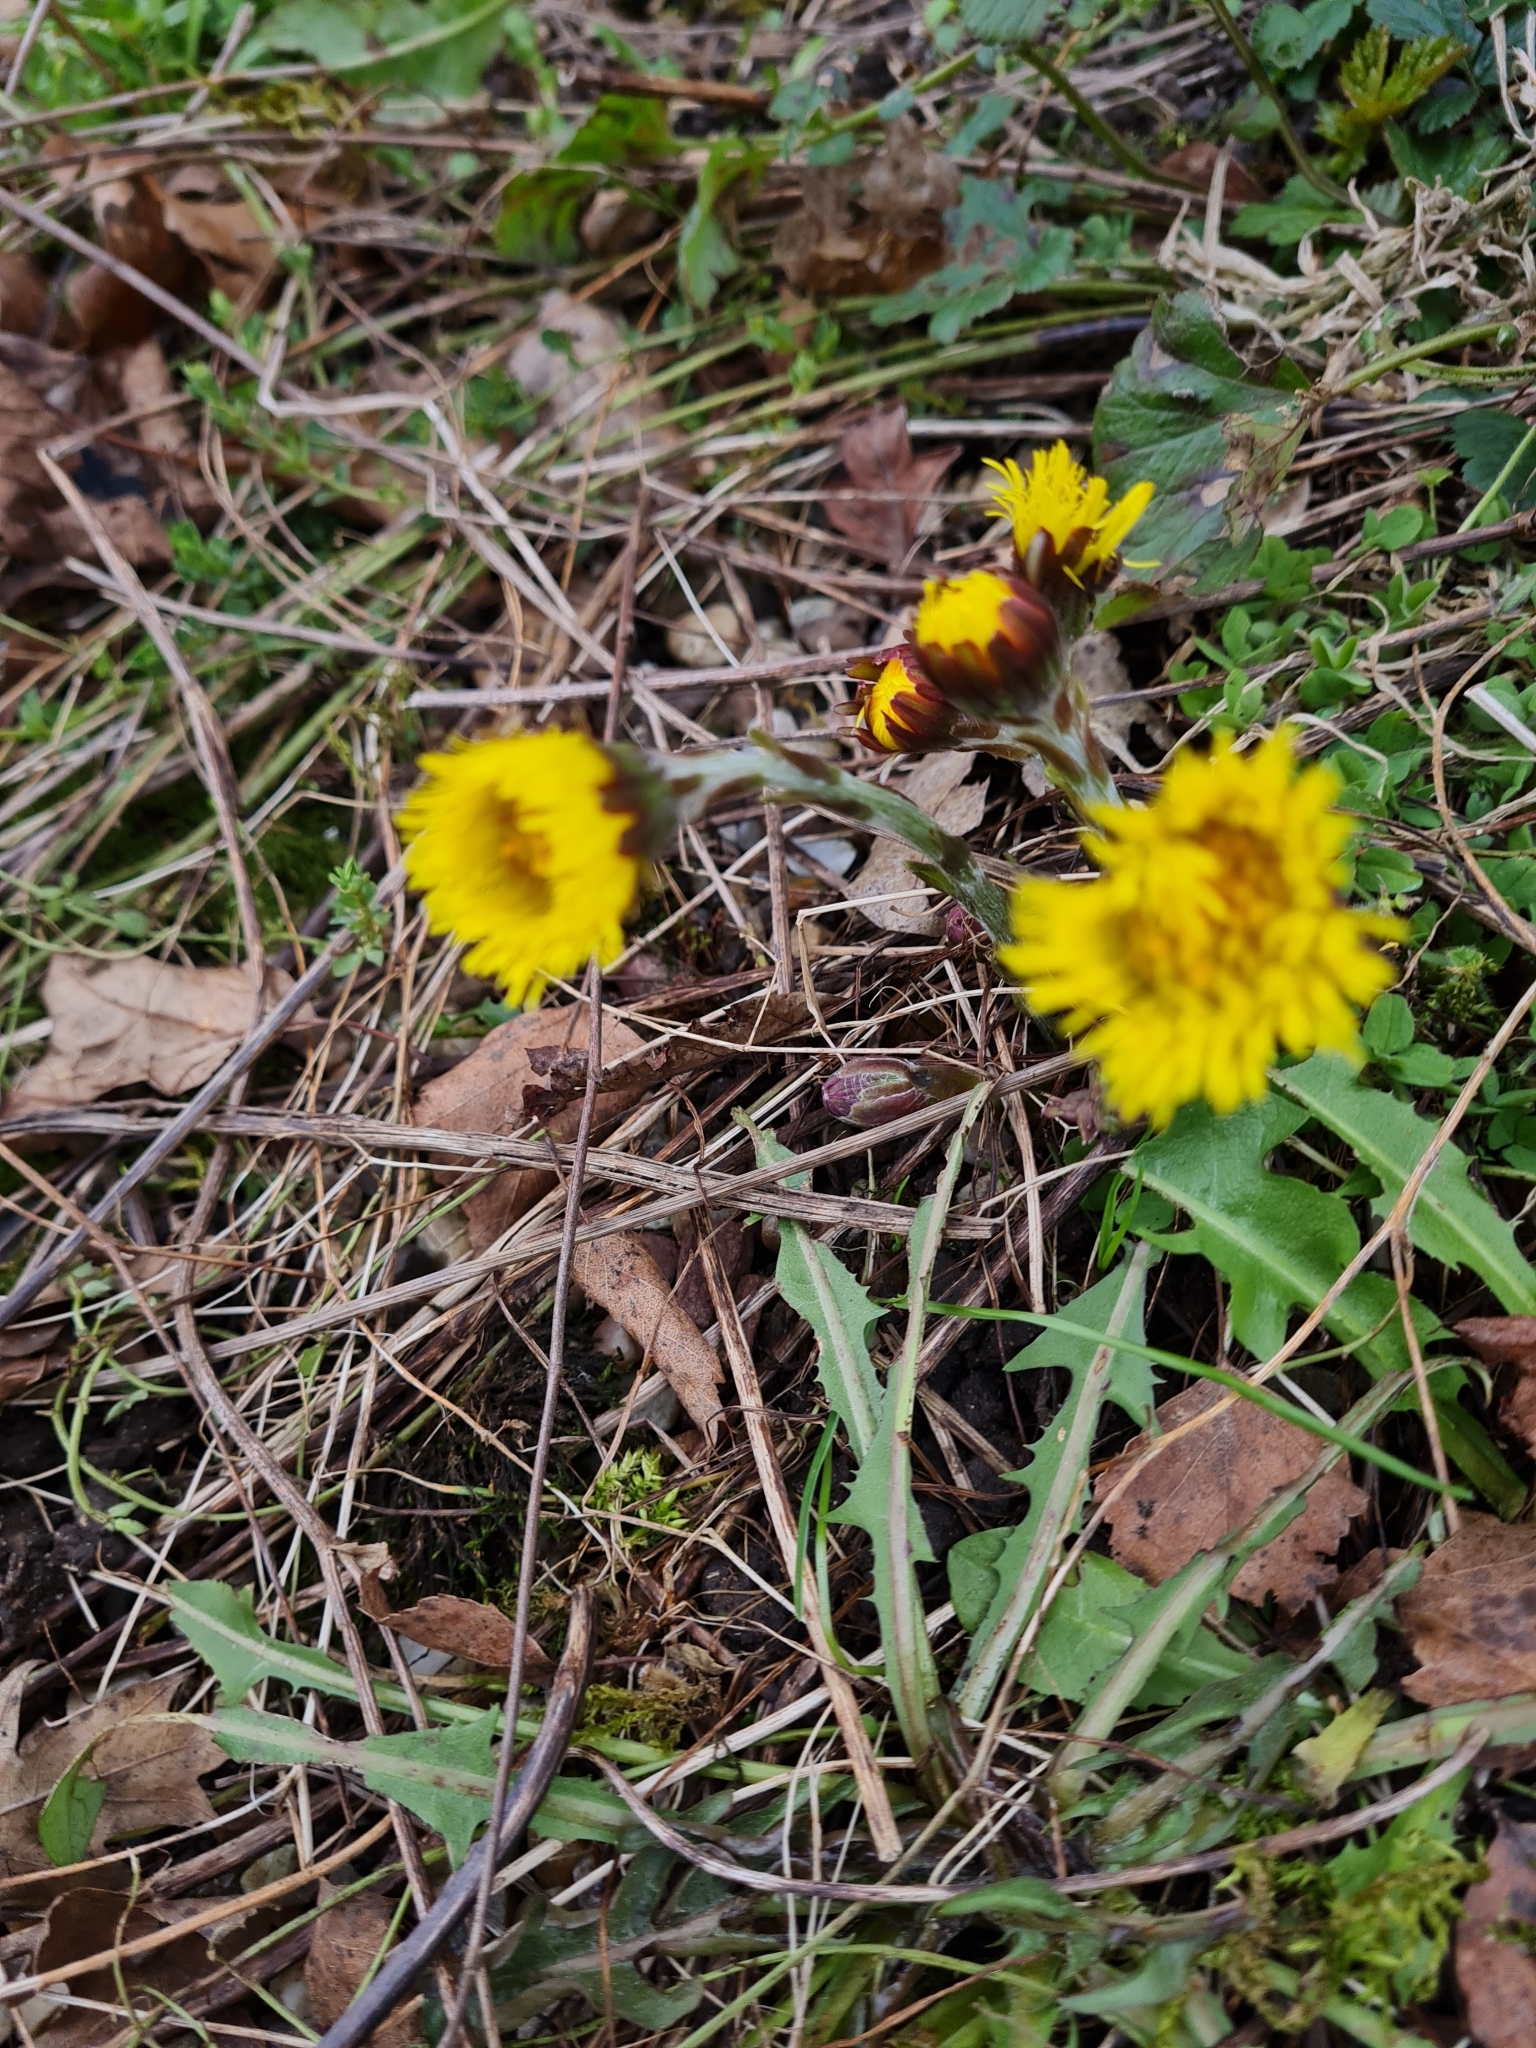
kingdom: Plantae
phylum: Tracheophyta
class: Magnoliopsida
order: Asterales
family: Asteraceae
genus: Tussilago
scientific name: Tussilago farfara
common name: Coltsfoot
